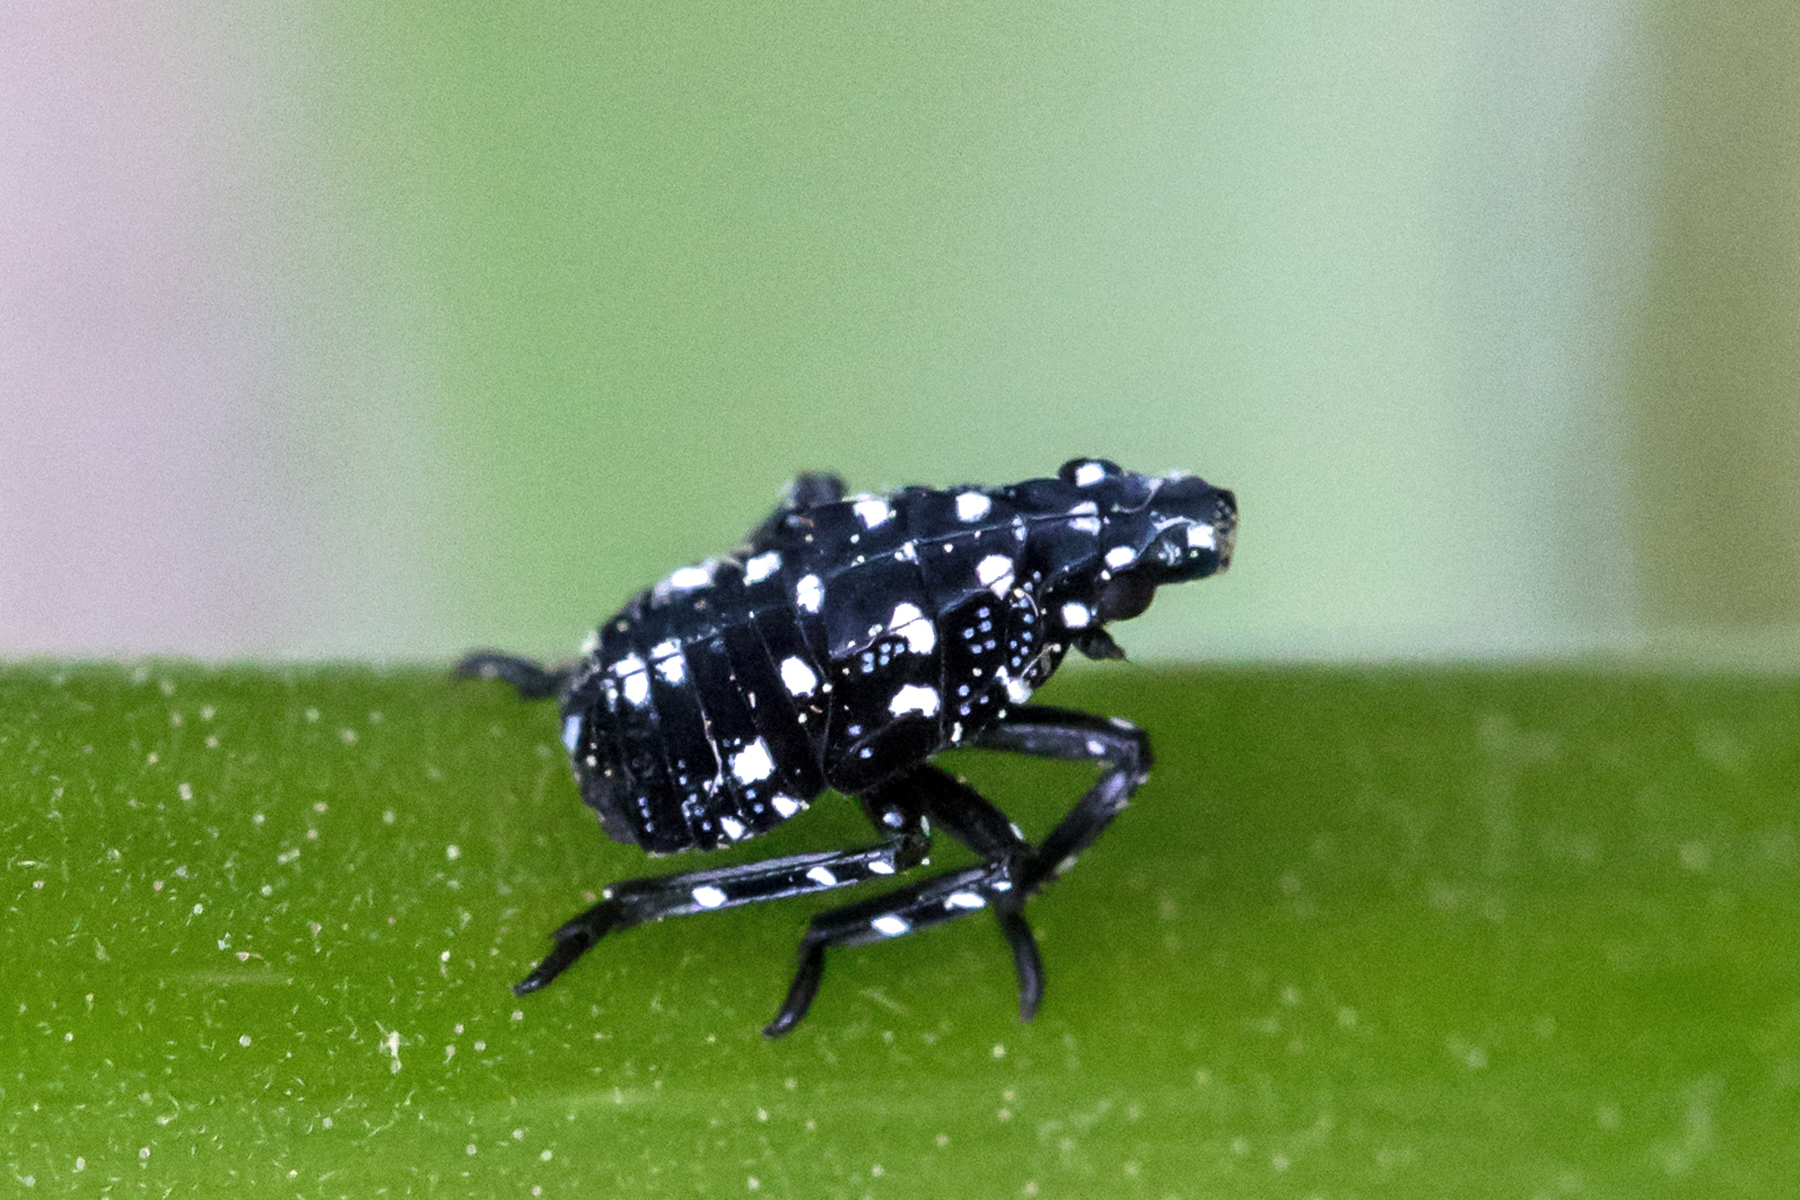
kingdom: Animalia
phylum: Arthropoda
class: Insecta
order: Hemiptera
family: Fulgoridae
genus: Lycorma
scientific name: Lycorma delicatula
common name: Spotted lanternfly
